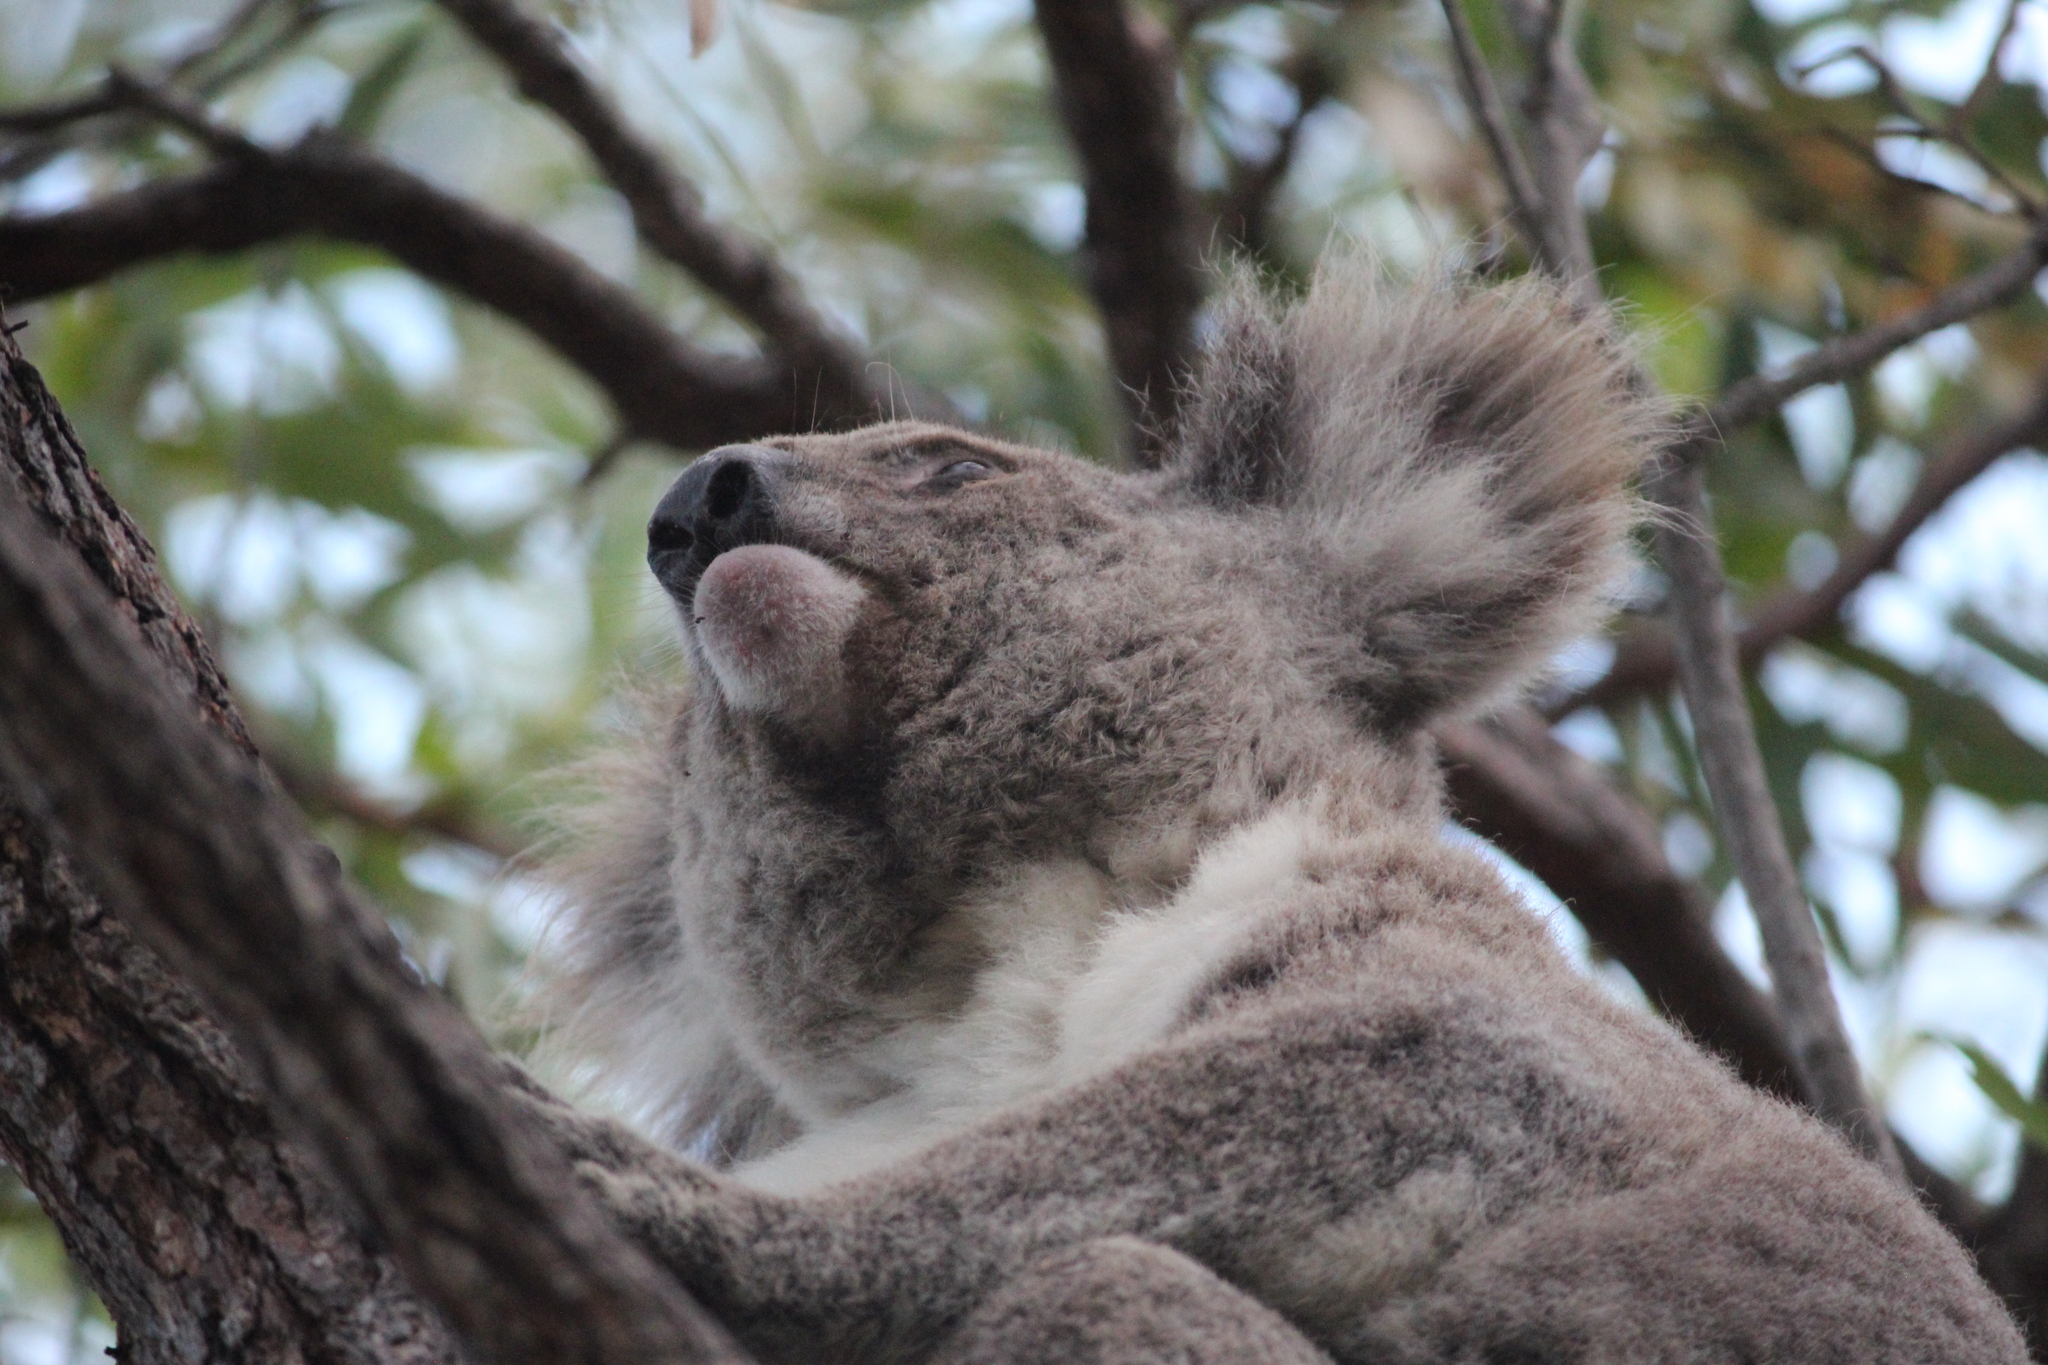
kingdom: Animalia
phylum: Chordata
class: Mammalia
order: Diprotodontia
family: Phascolarctidae
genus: Phascolarctos
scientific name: Phascolarctos cinereus
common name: Koala
